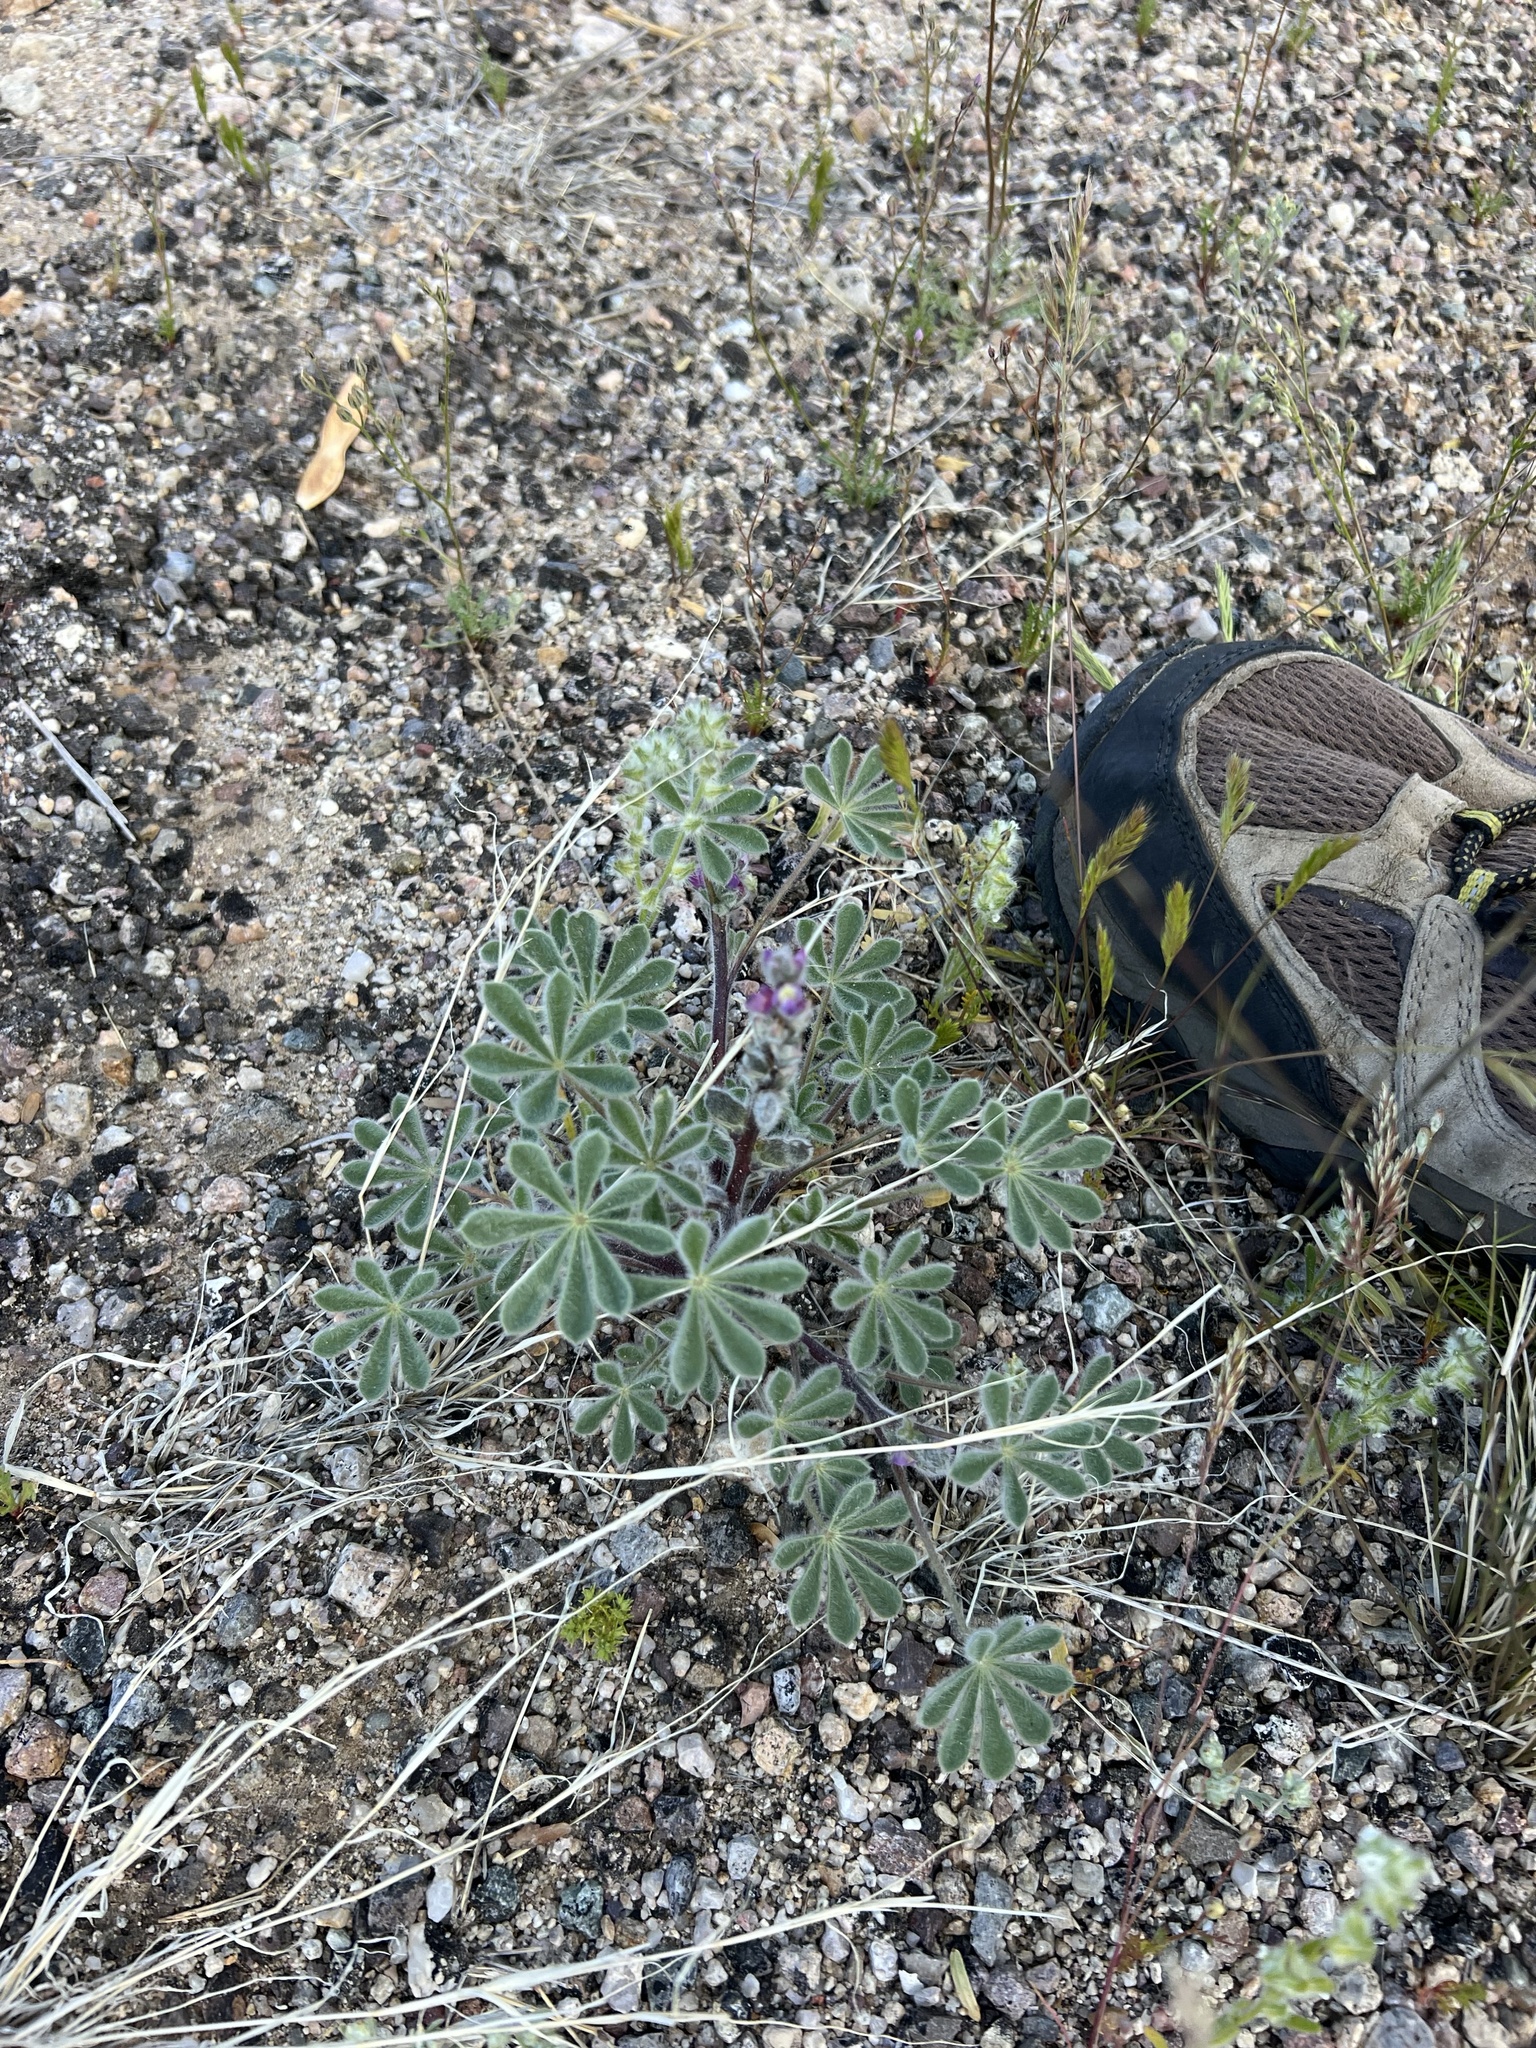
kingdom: Plantae
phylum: Tracheophyta
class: Magnoliopsida
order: Fabales
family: Fabaceae
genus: Lupinus
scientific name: Lupinus concinnus
